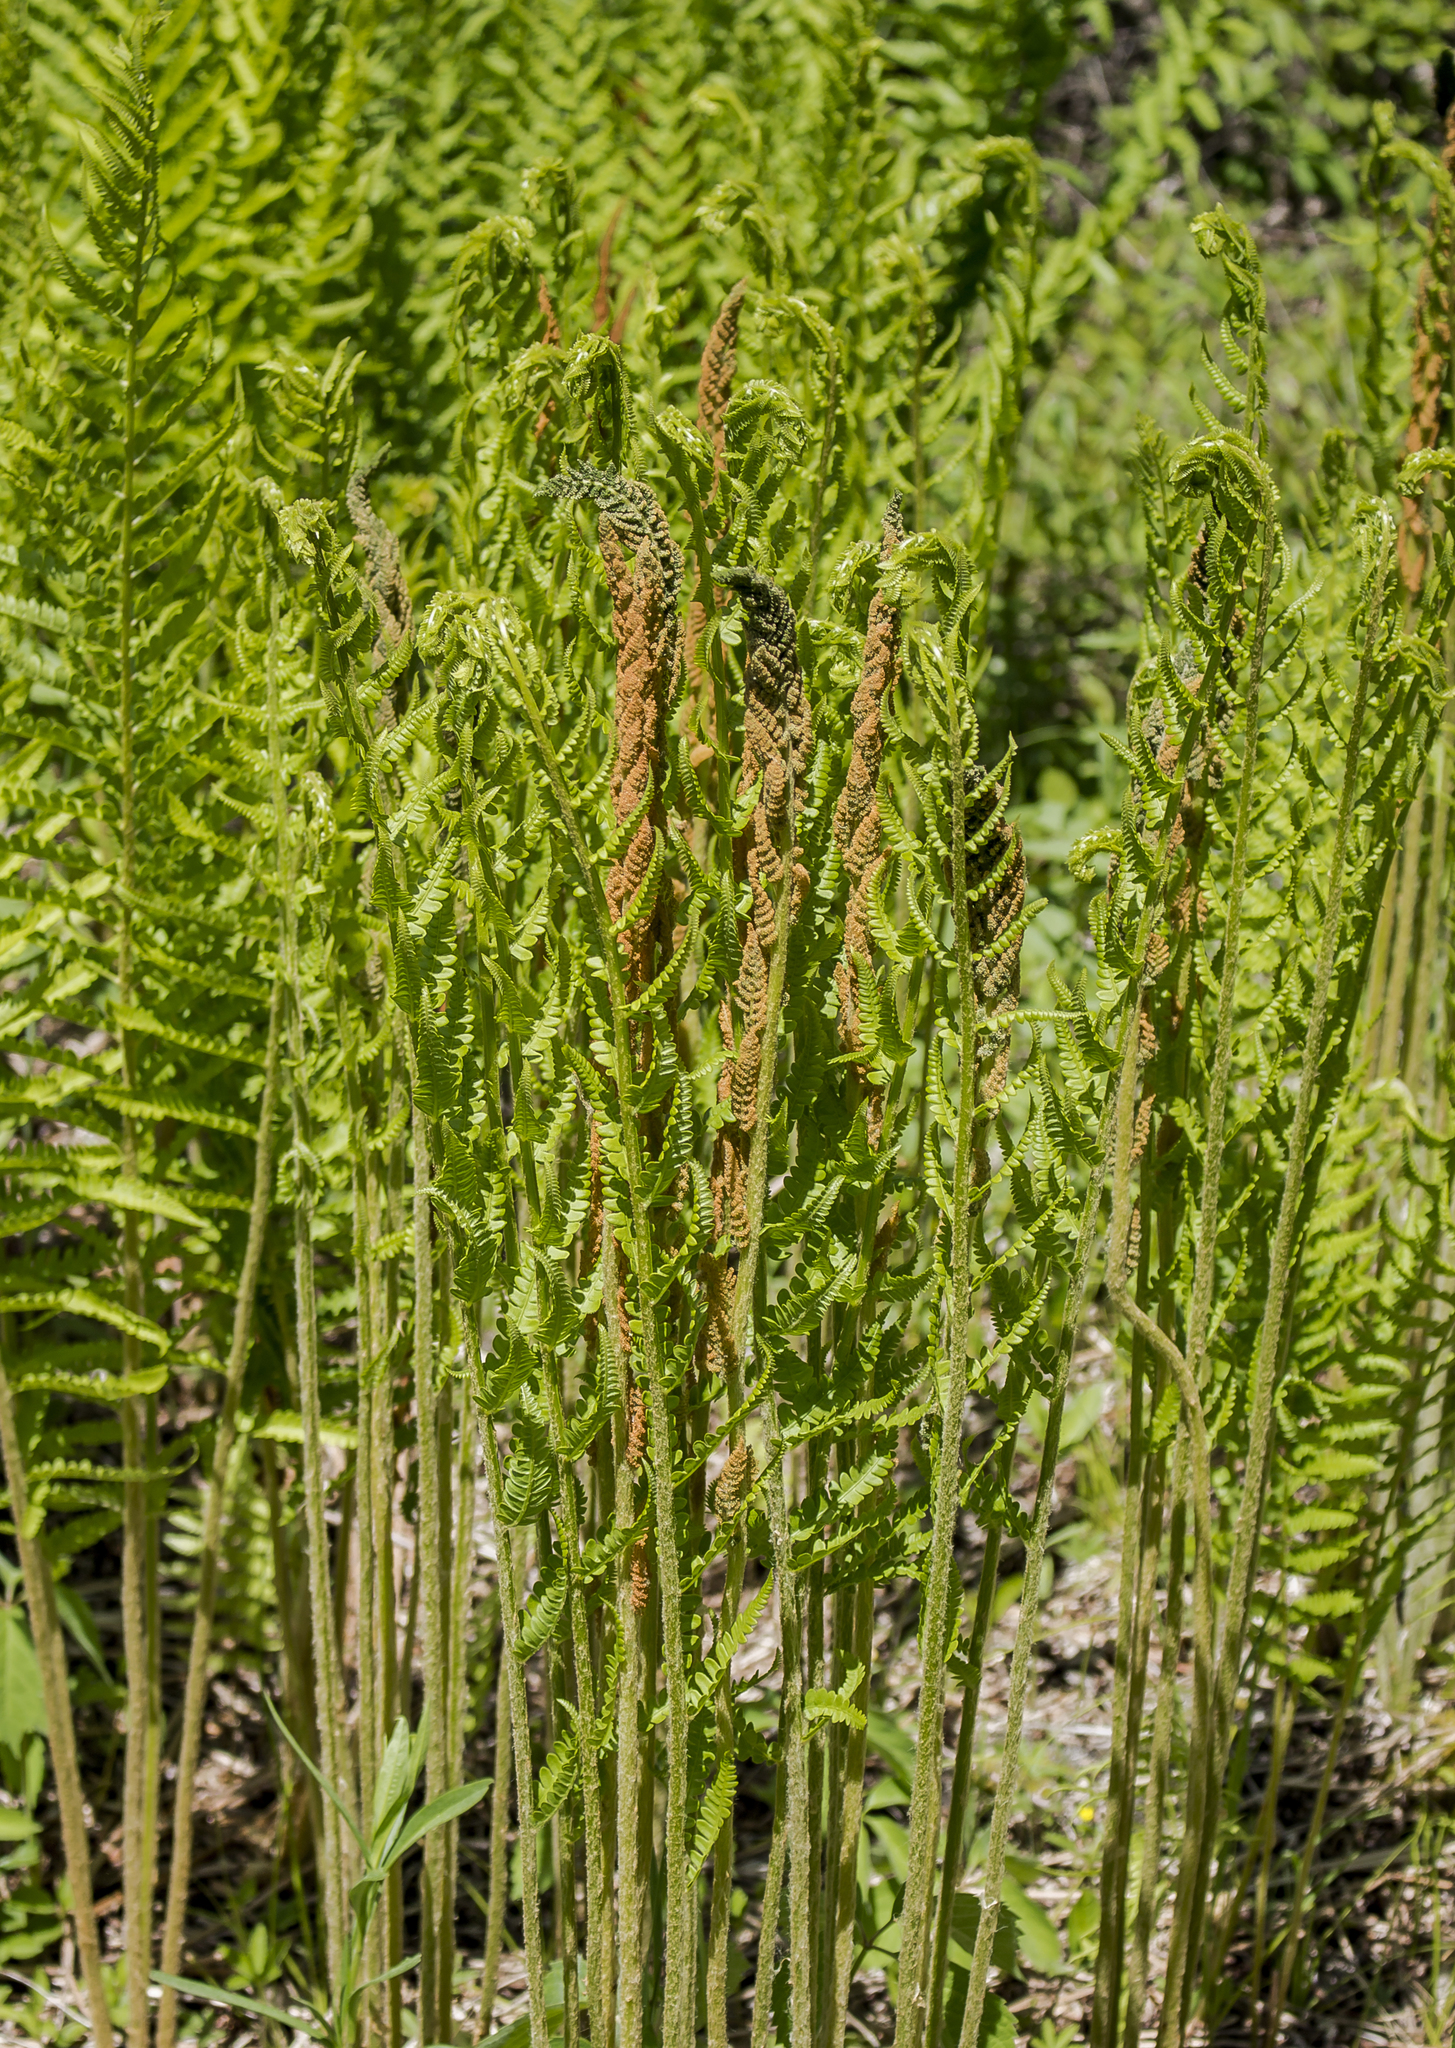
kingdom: Plantae
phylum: Tracheophyta
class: Polypodiopsida
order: Osmundales
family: Osmundaceae
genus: Osmundastrum
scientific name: Osmundastrum cinnamomeum
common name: Cinnamon fern
